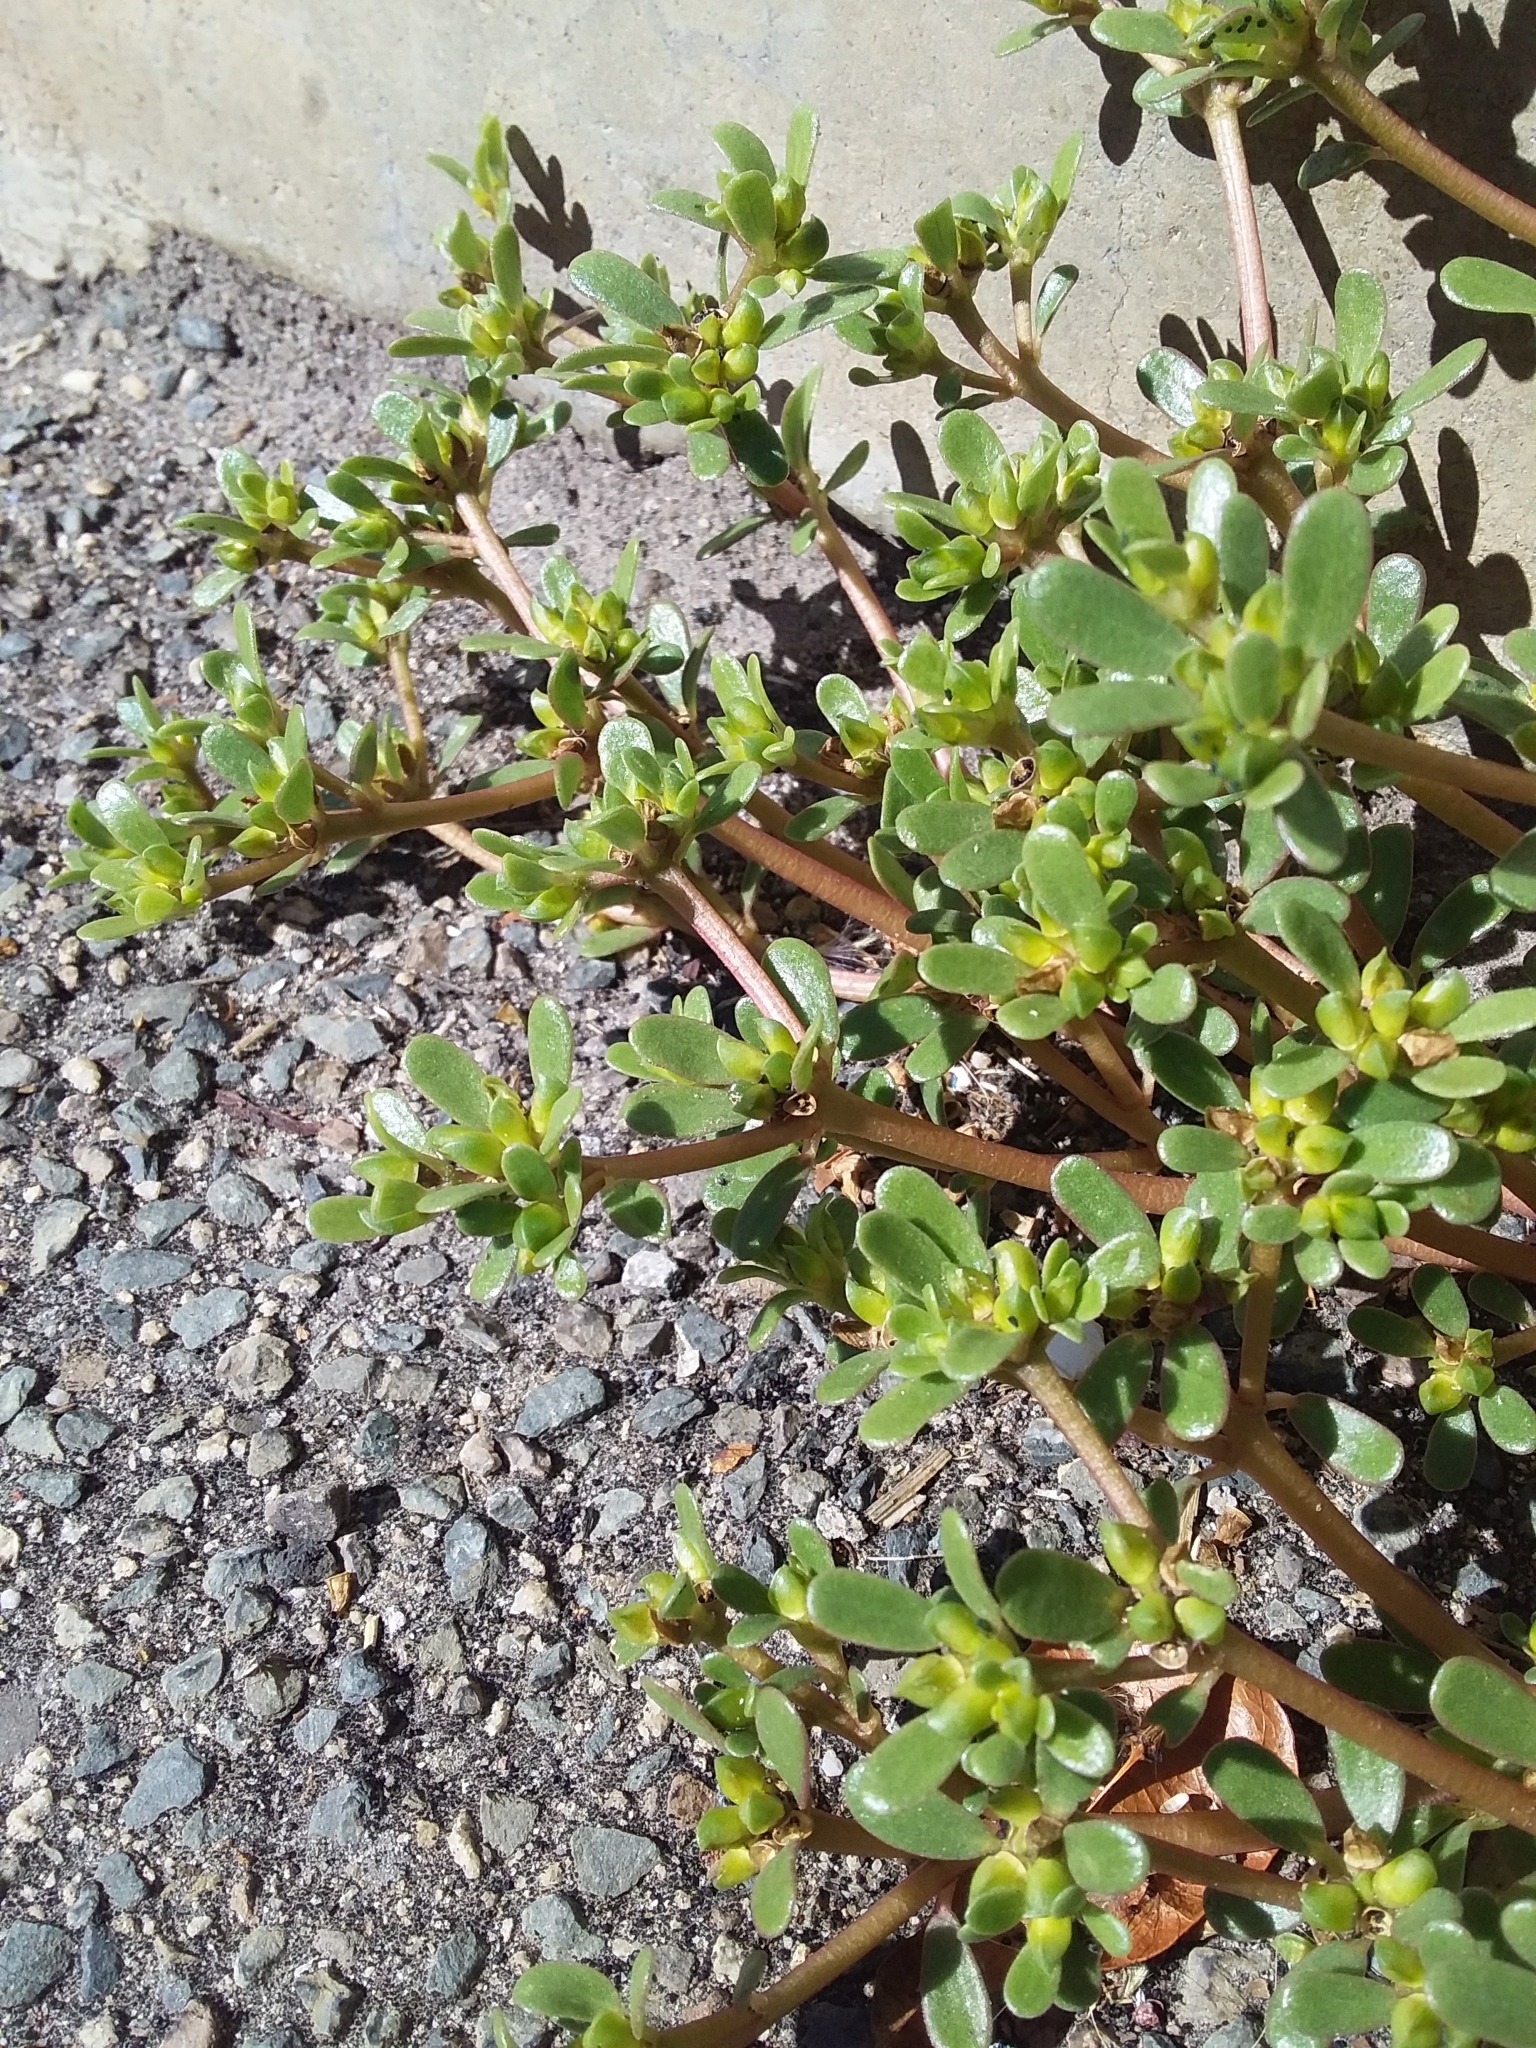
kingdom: Plantae
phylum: Tracheophyta
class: Magnoliopsida
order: Caryophyllales
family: Portulacaceae
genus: Portulaca
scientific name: Portulaca oleracea
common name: Common purslane
